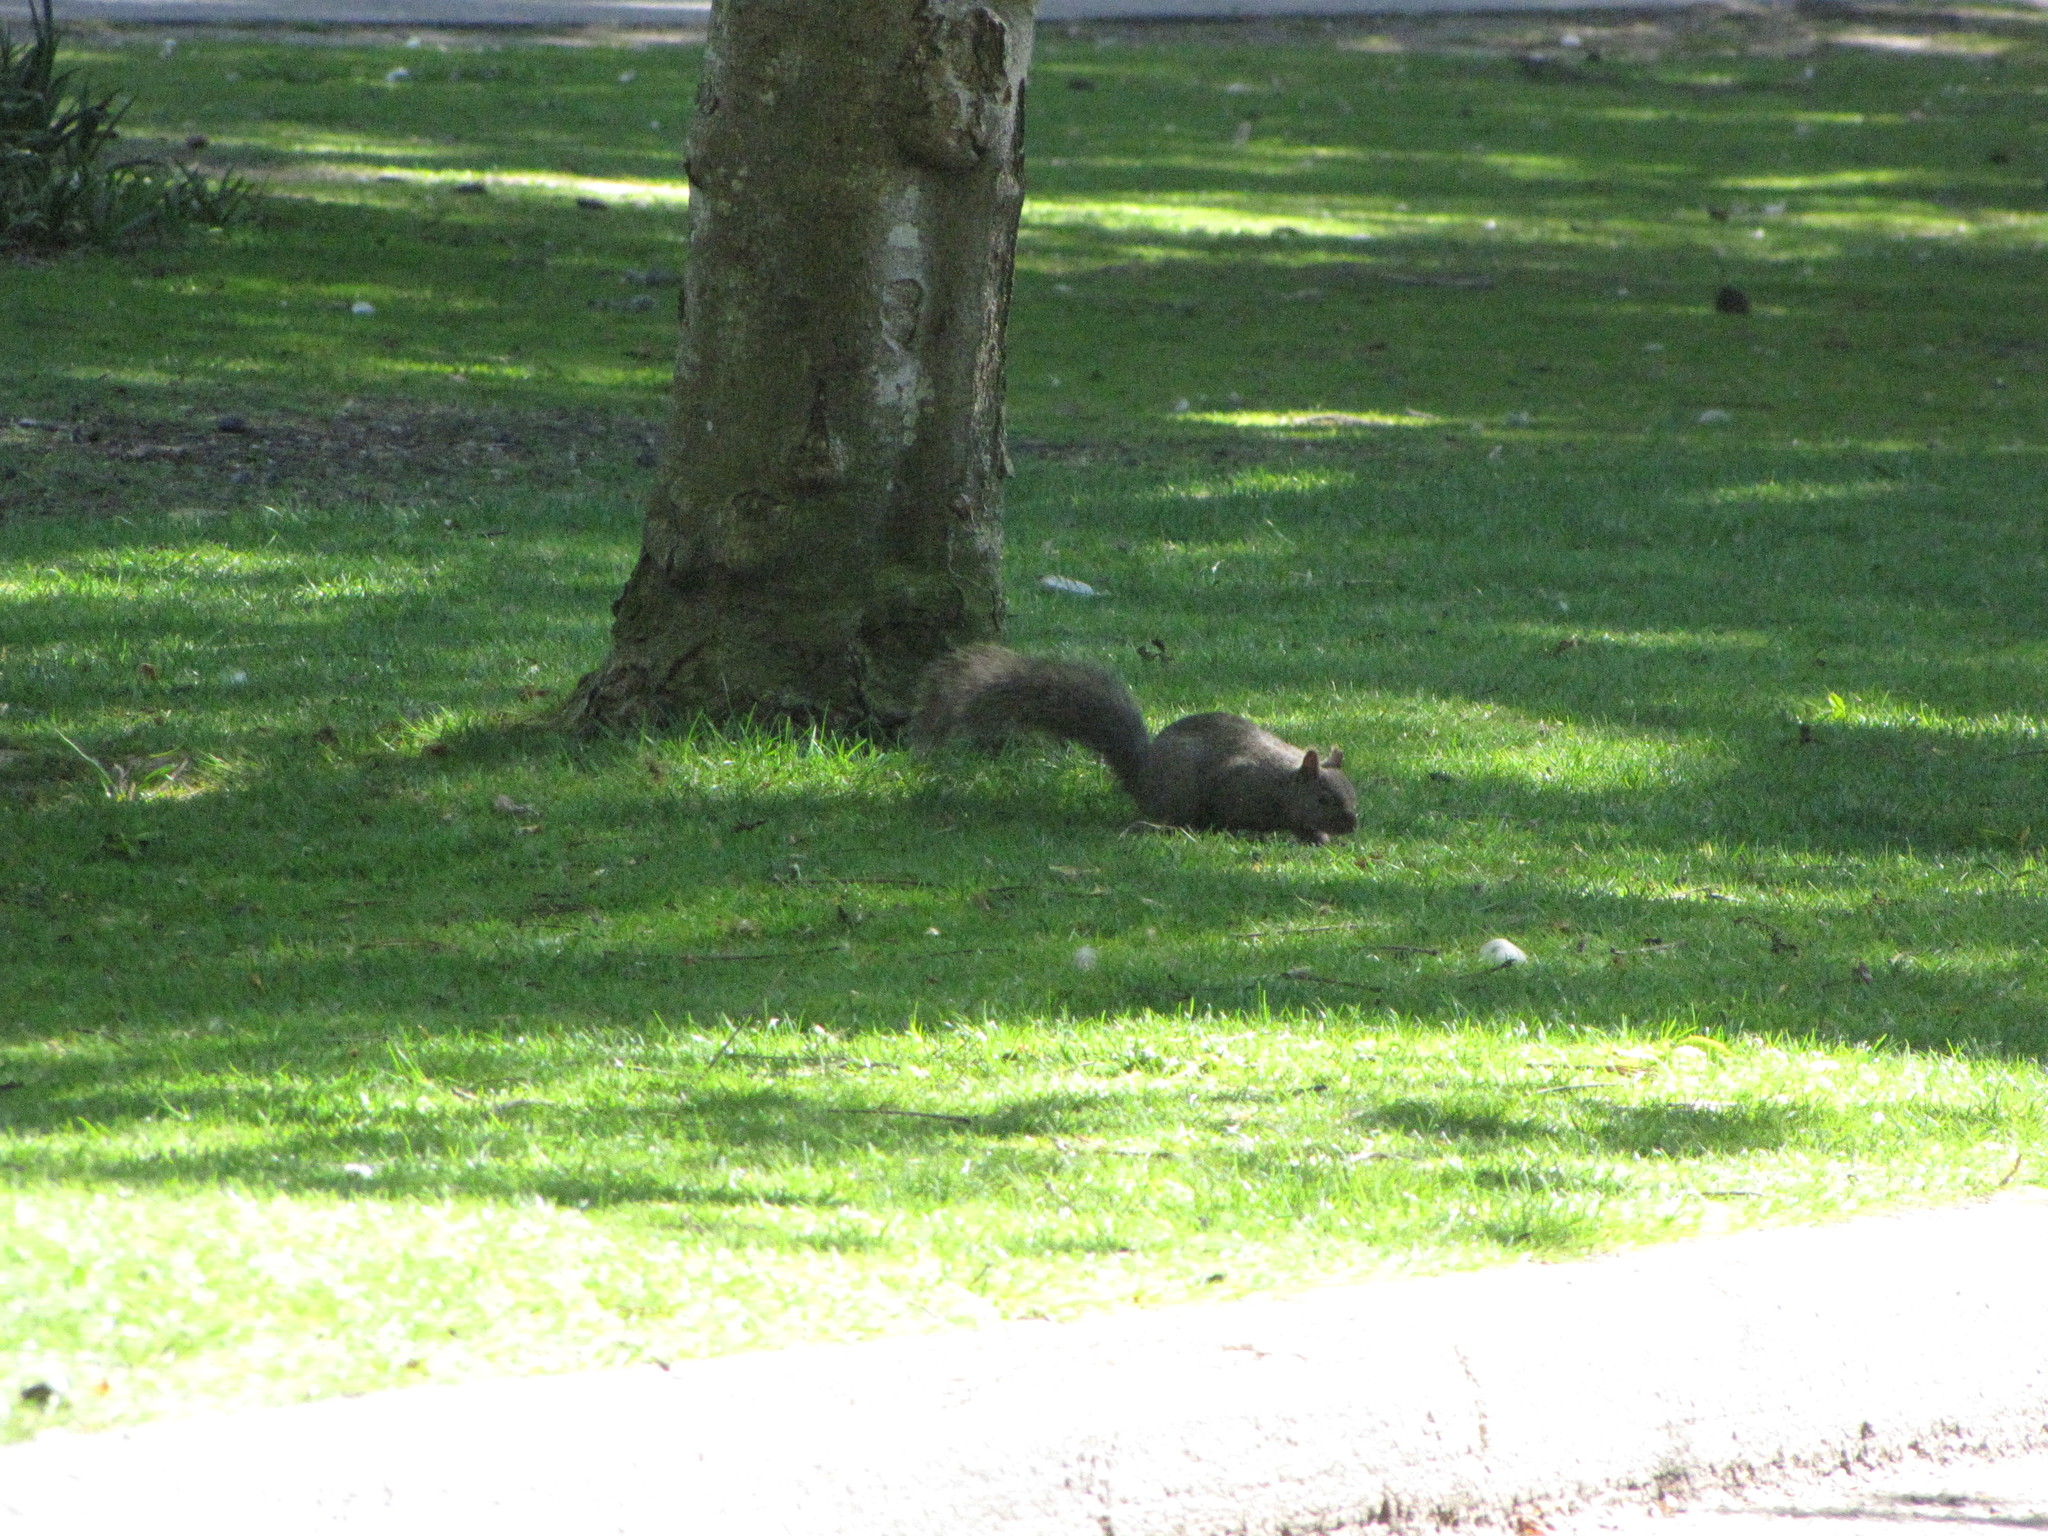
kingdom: Animalia
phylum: Chordata
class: Mammalia
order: Rodentia
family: Sciuridae
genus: Sciurus
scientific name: Sciurus carolinensis
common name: Eastern gray squirrel
